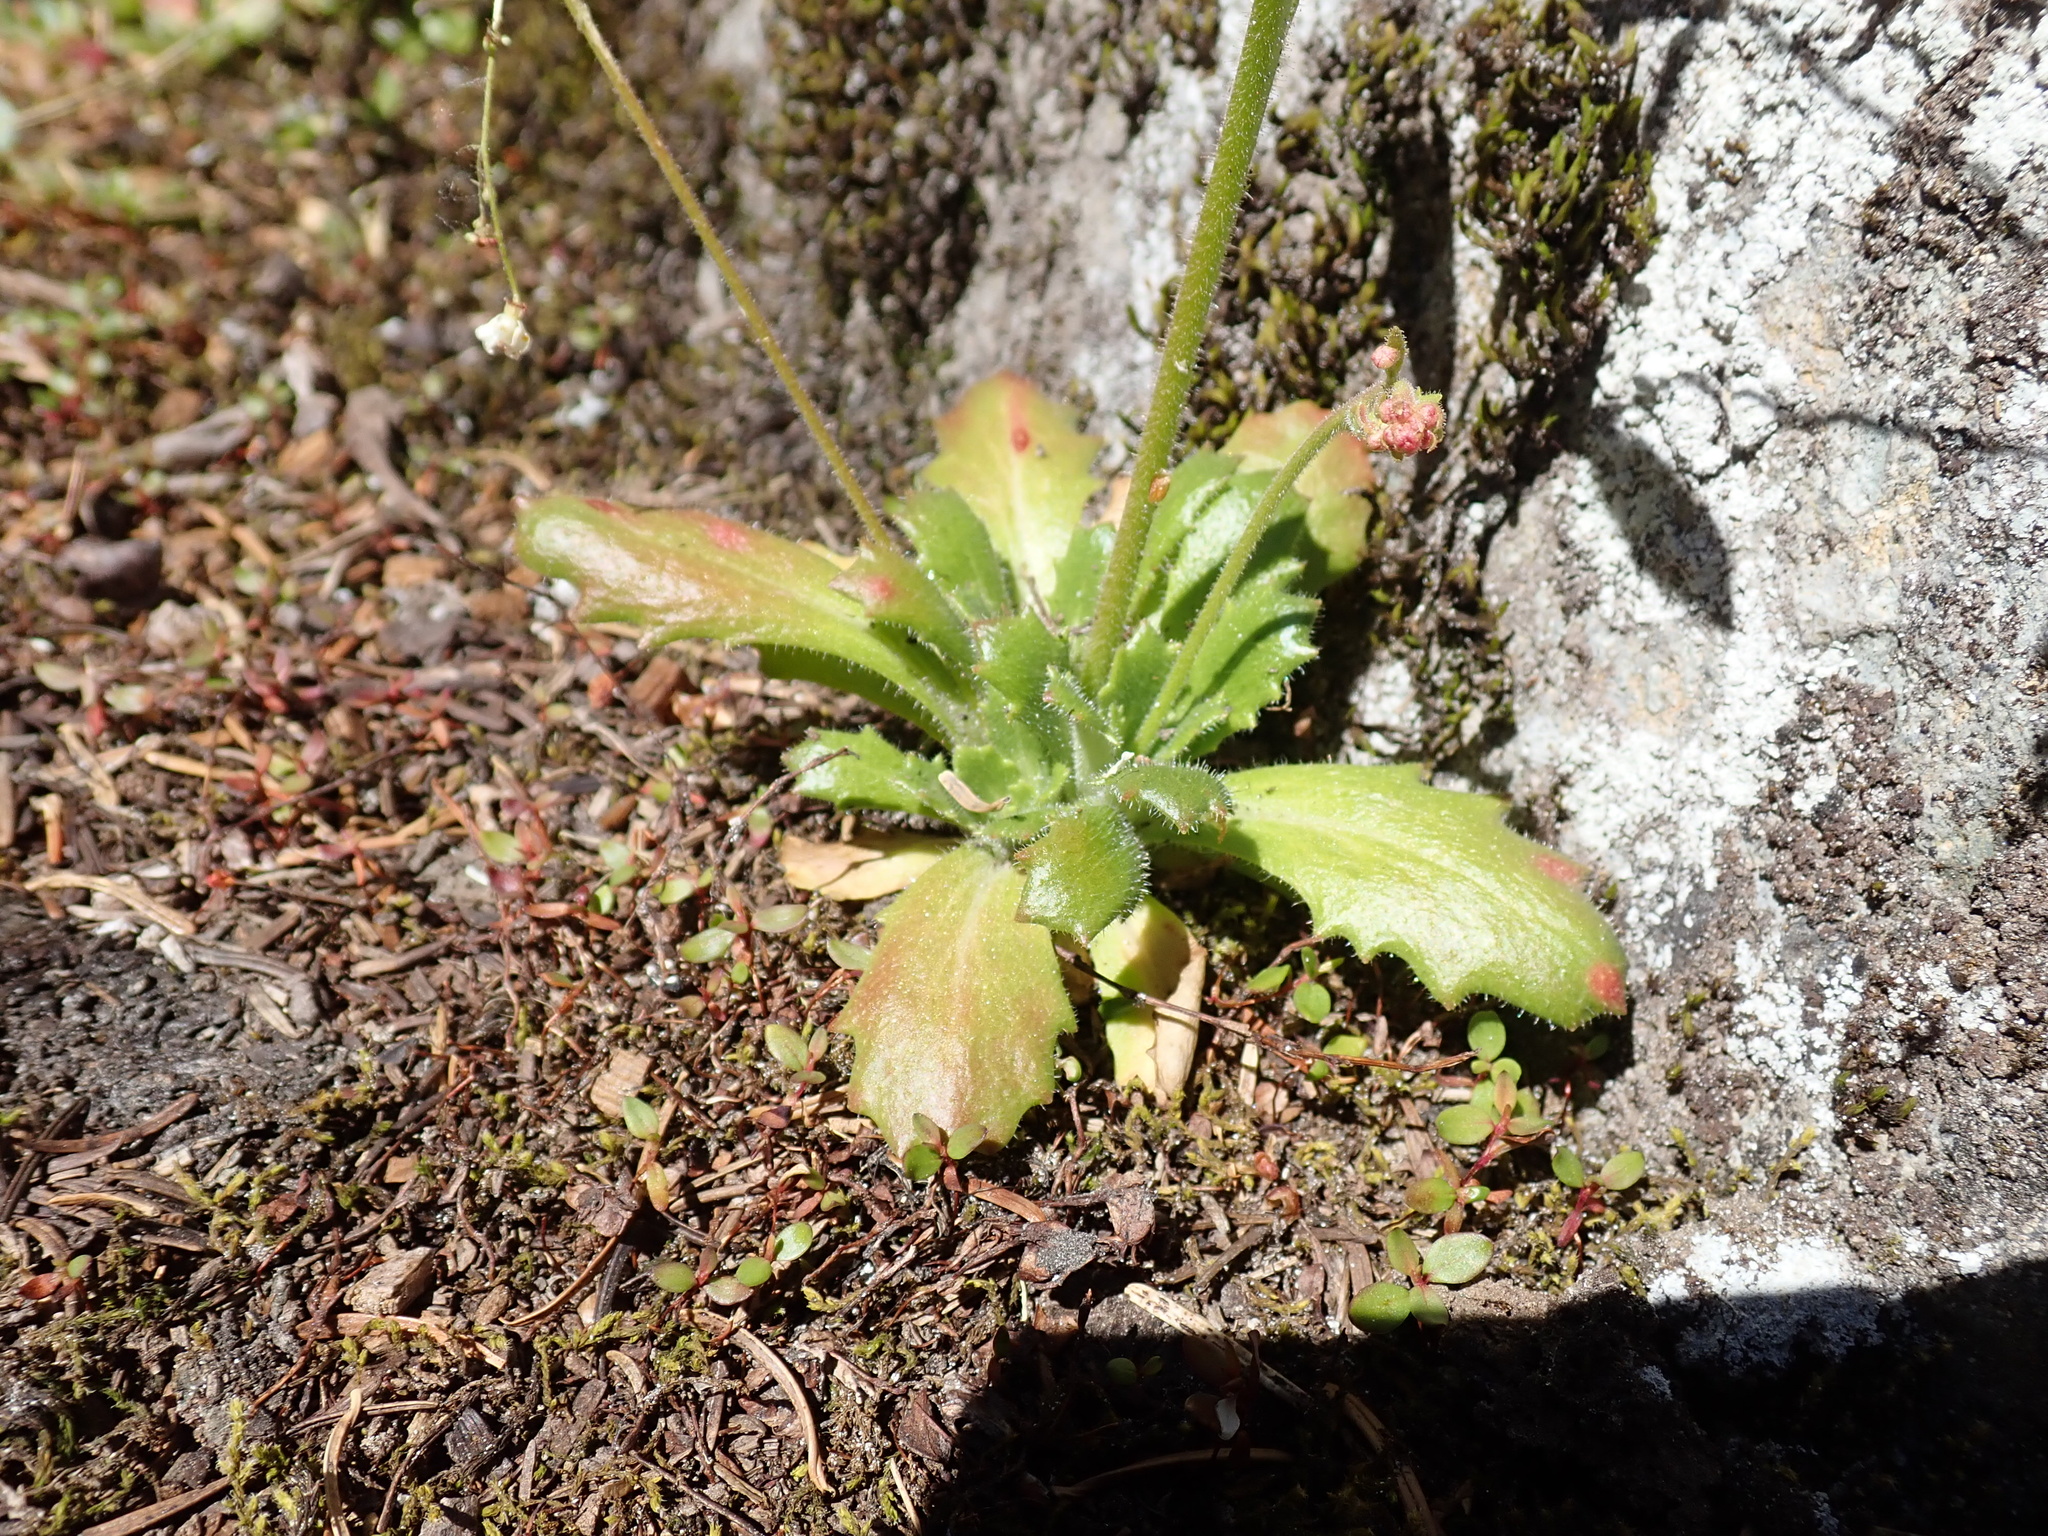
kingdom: Plantae
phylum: Tracheophyta
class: Magnoliopsida
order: Saxifragales
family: Saxifragaceae
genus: Micranthes
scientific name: Micranthes ferruginea
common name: Rusty saxifrage
